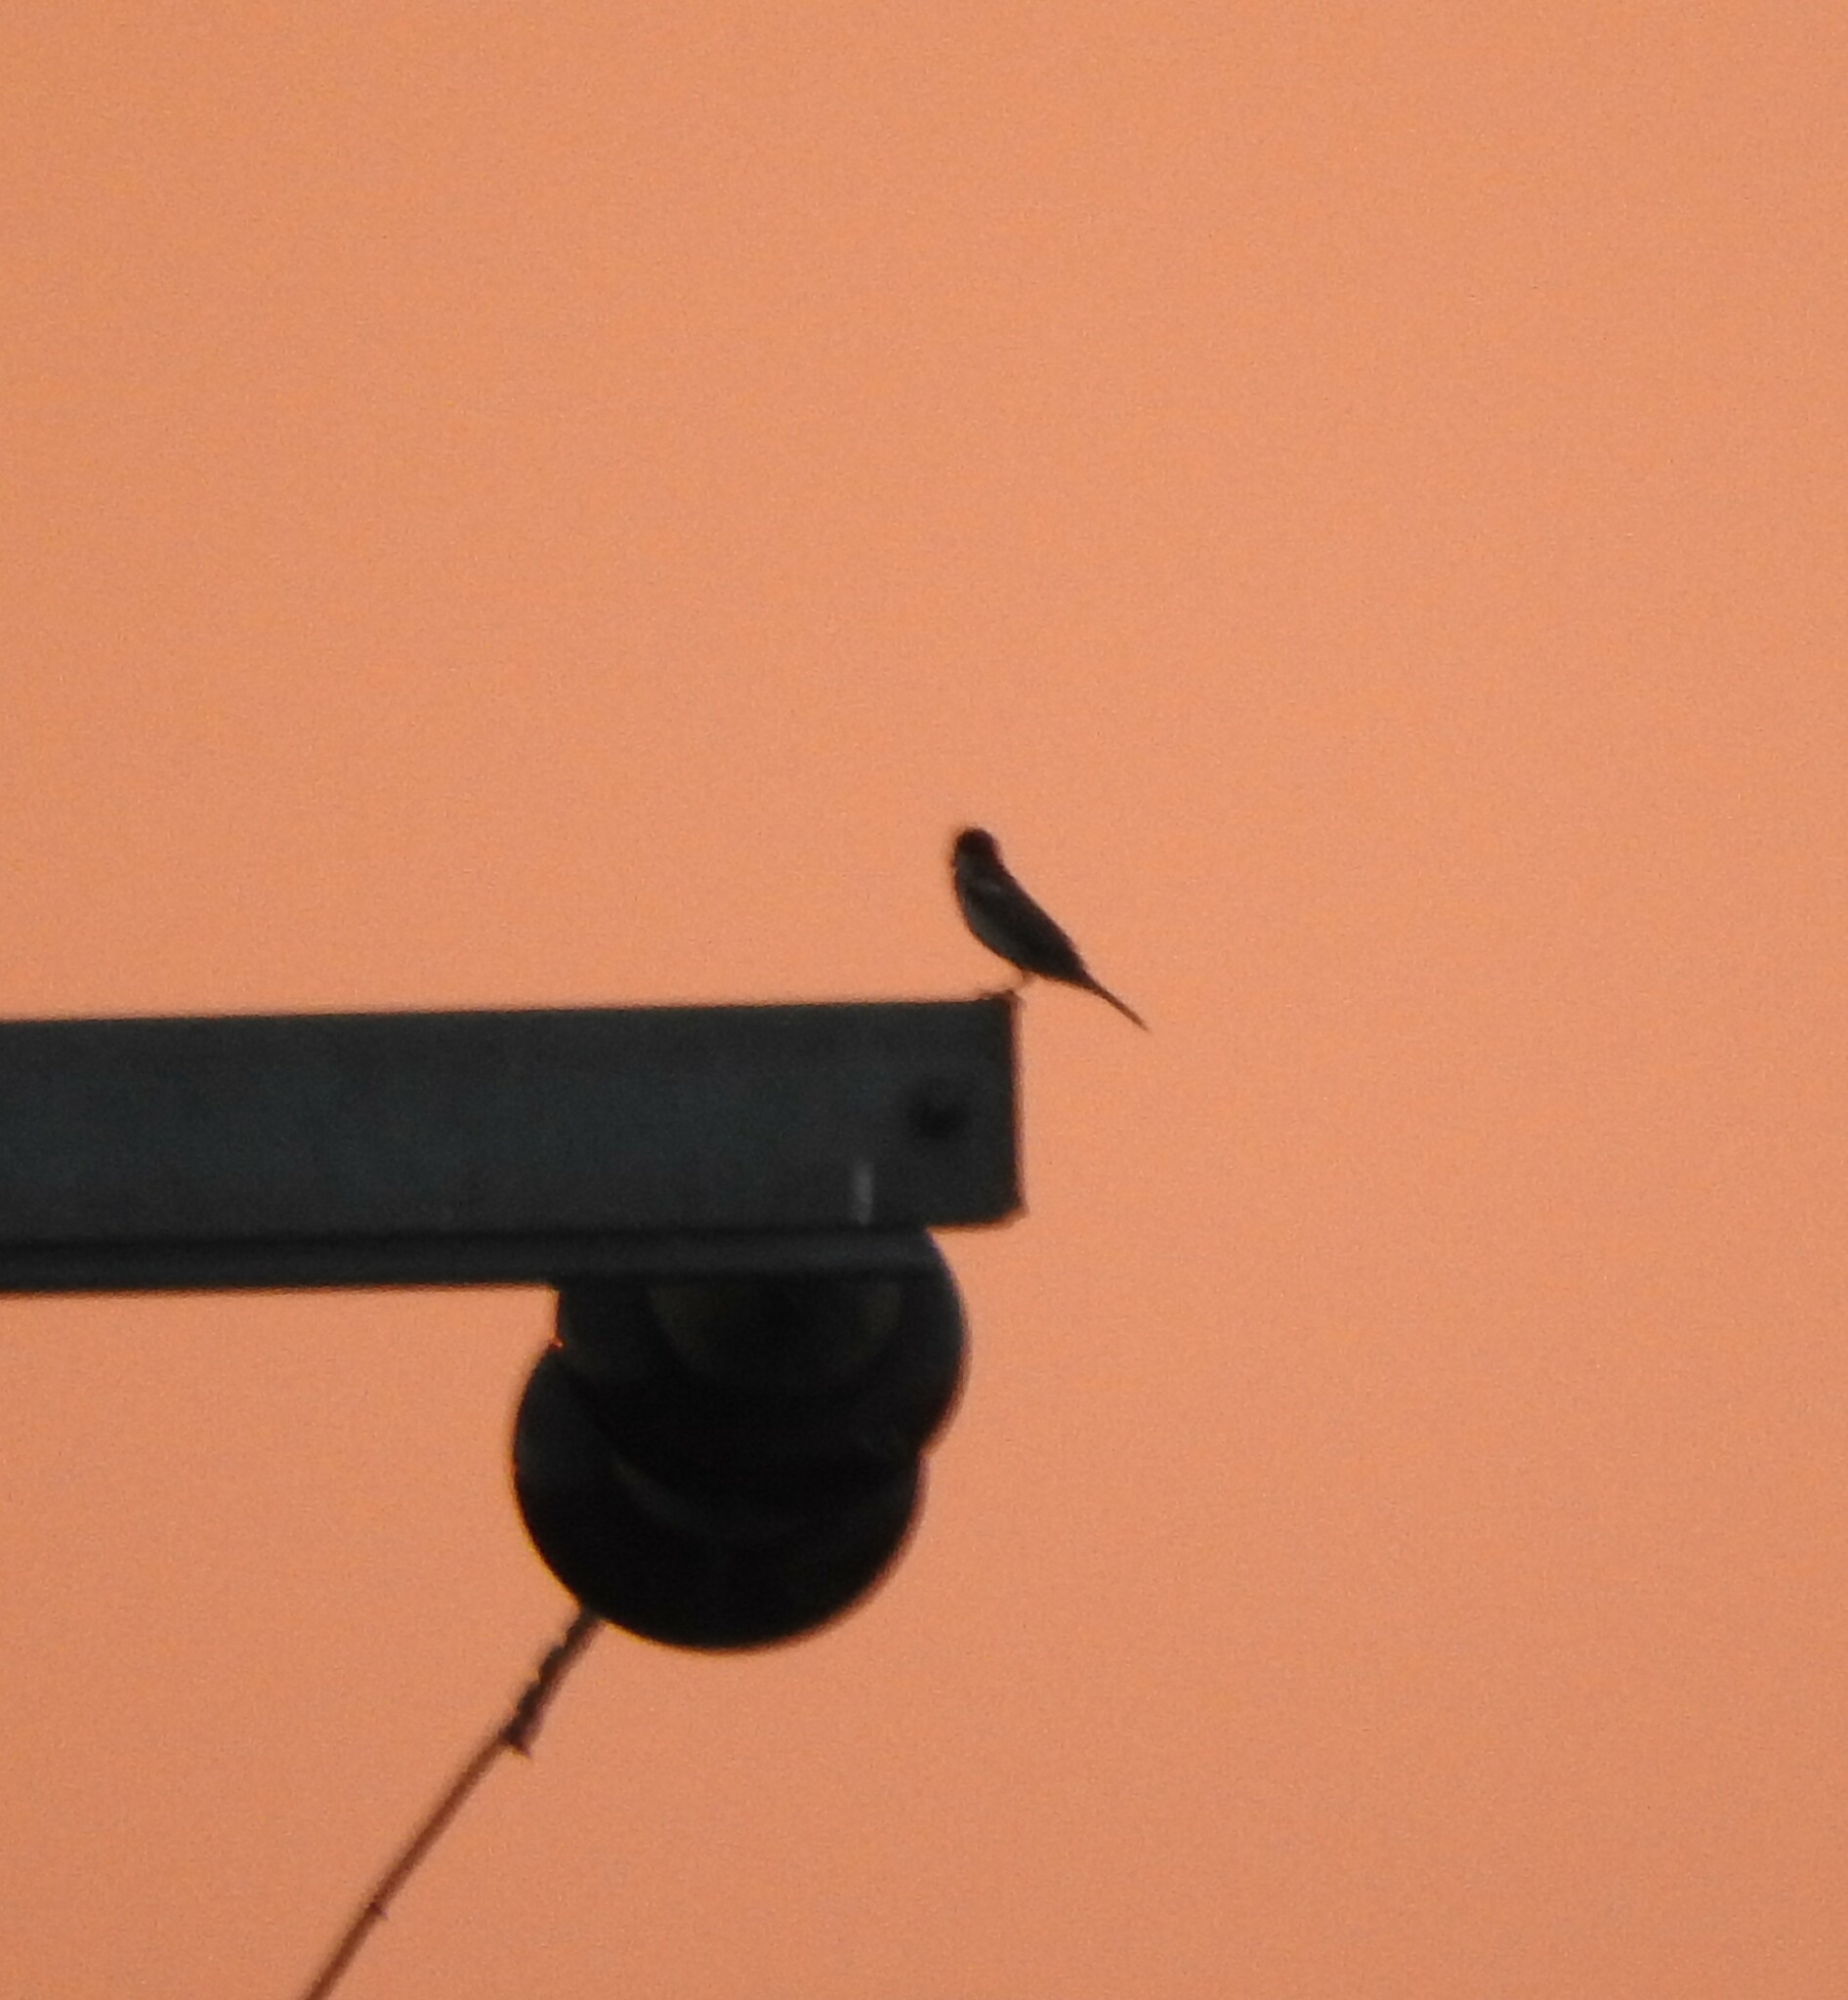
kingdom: Animalia
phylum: Chordata
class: Aves
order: Passeriformes
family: Fringillidae
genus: Haemorhous
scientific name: Haemorhous mexicanus
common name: House finch
